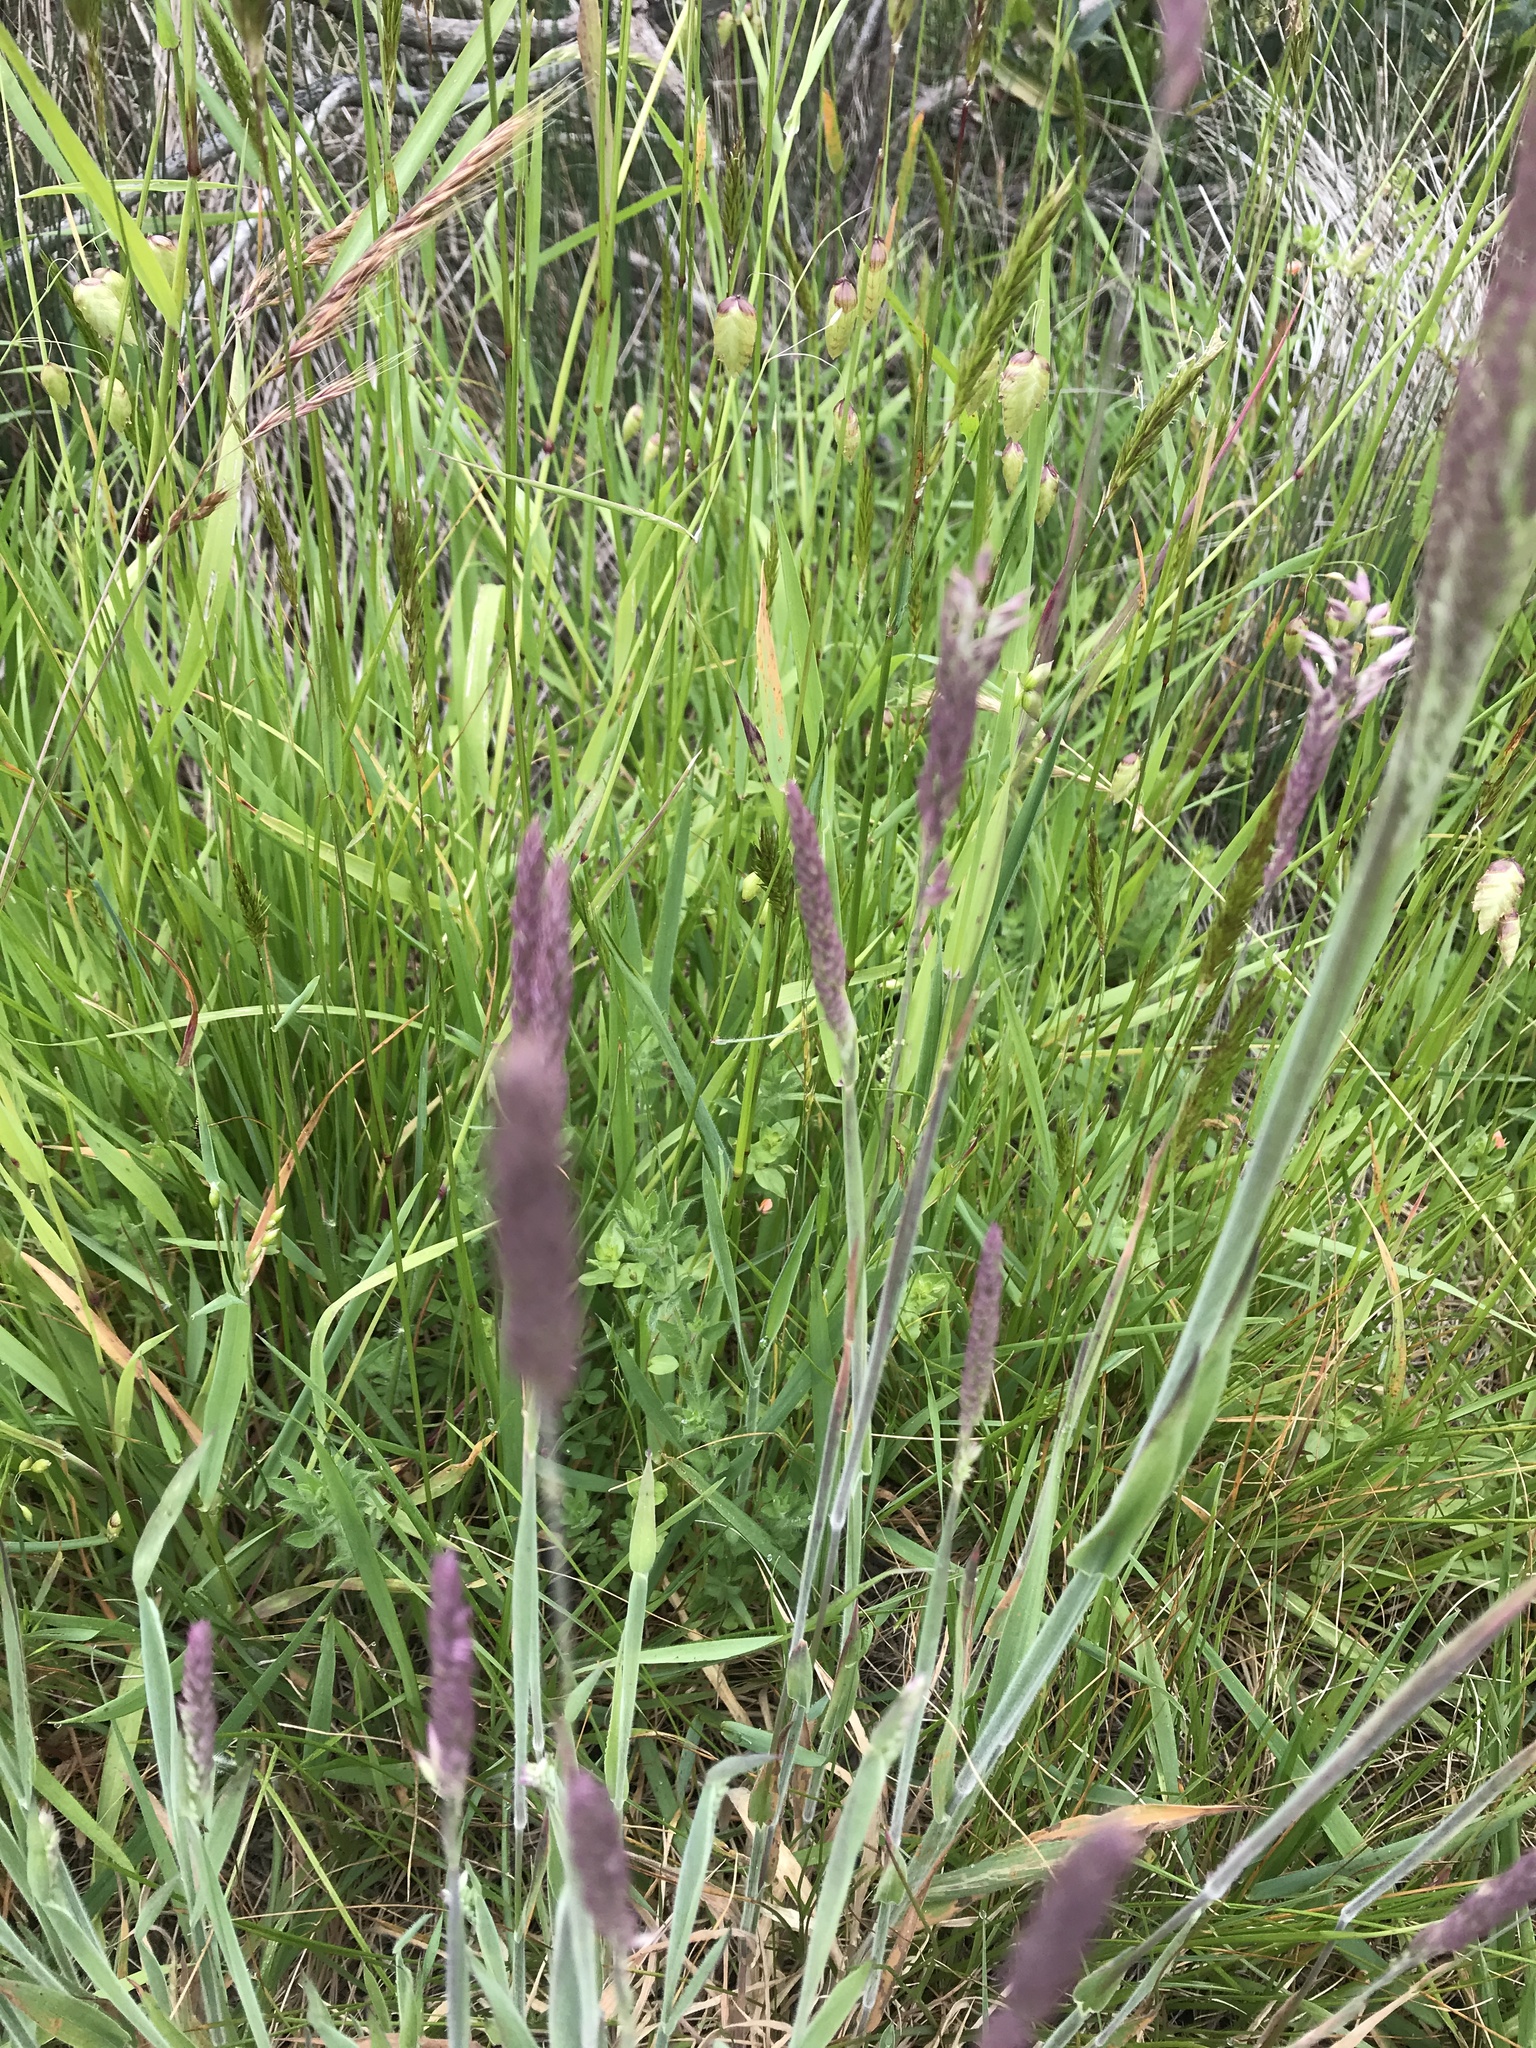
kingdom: Plantae
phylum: Tracheophyta
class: Liliopsida
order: Poales
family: Poaceae
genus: Holcus
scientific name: Holcus lanatus
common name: Yorkshire-fog
